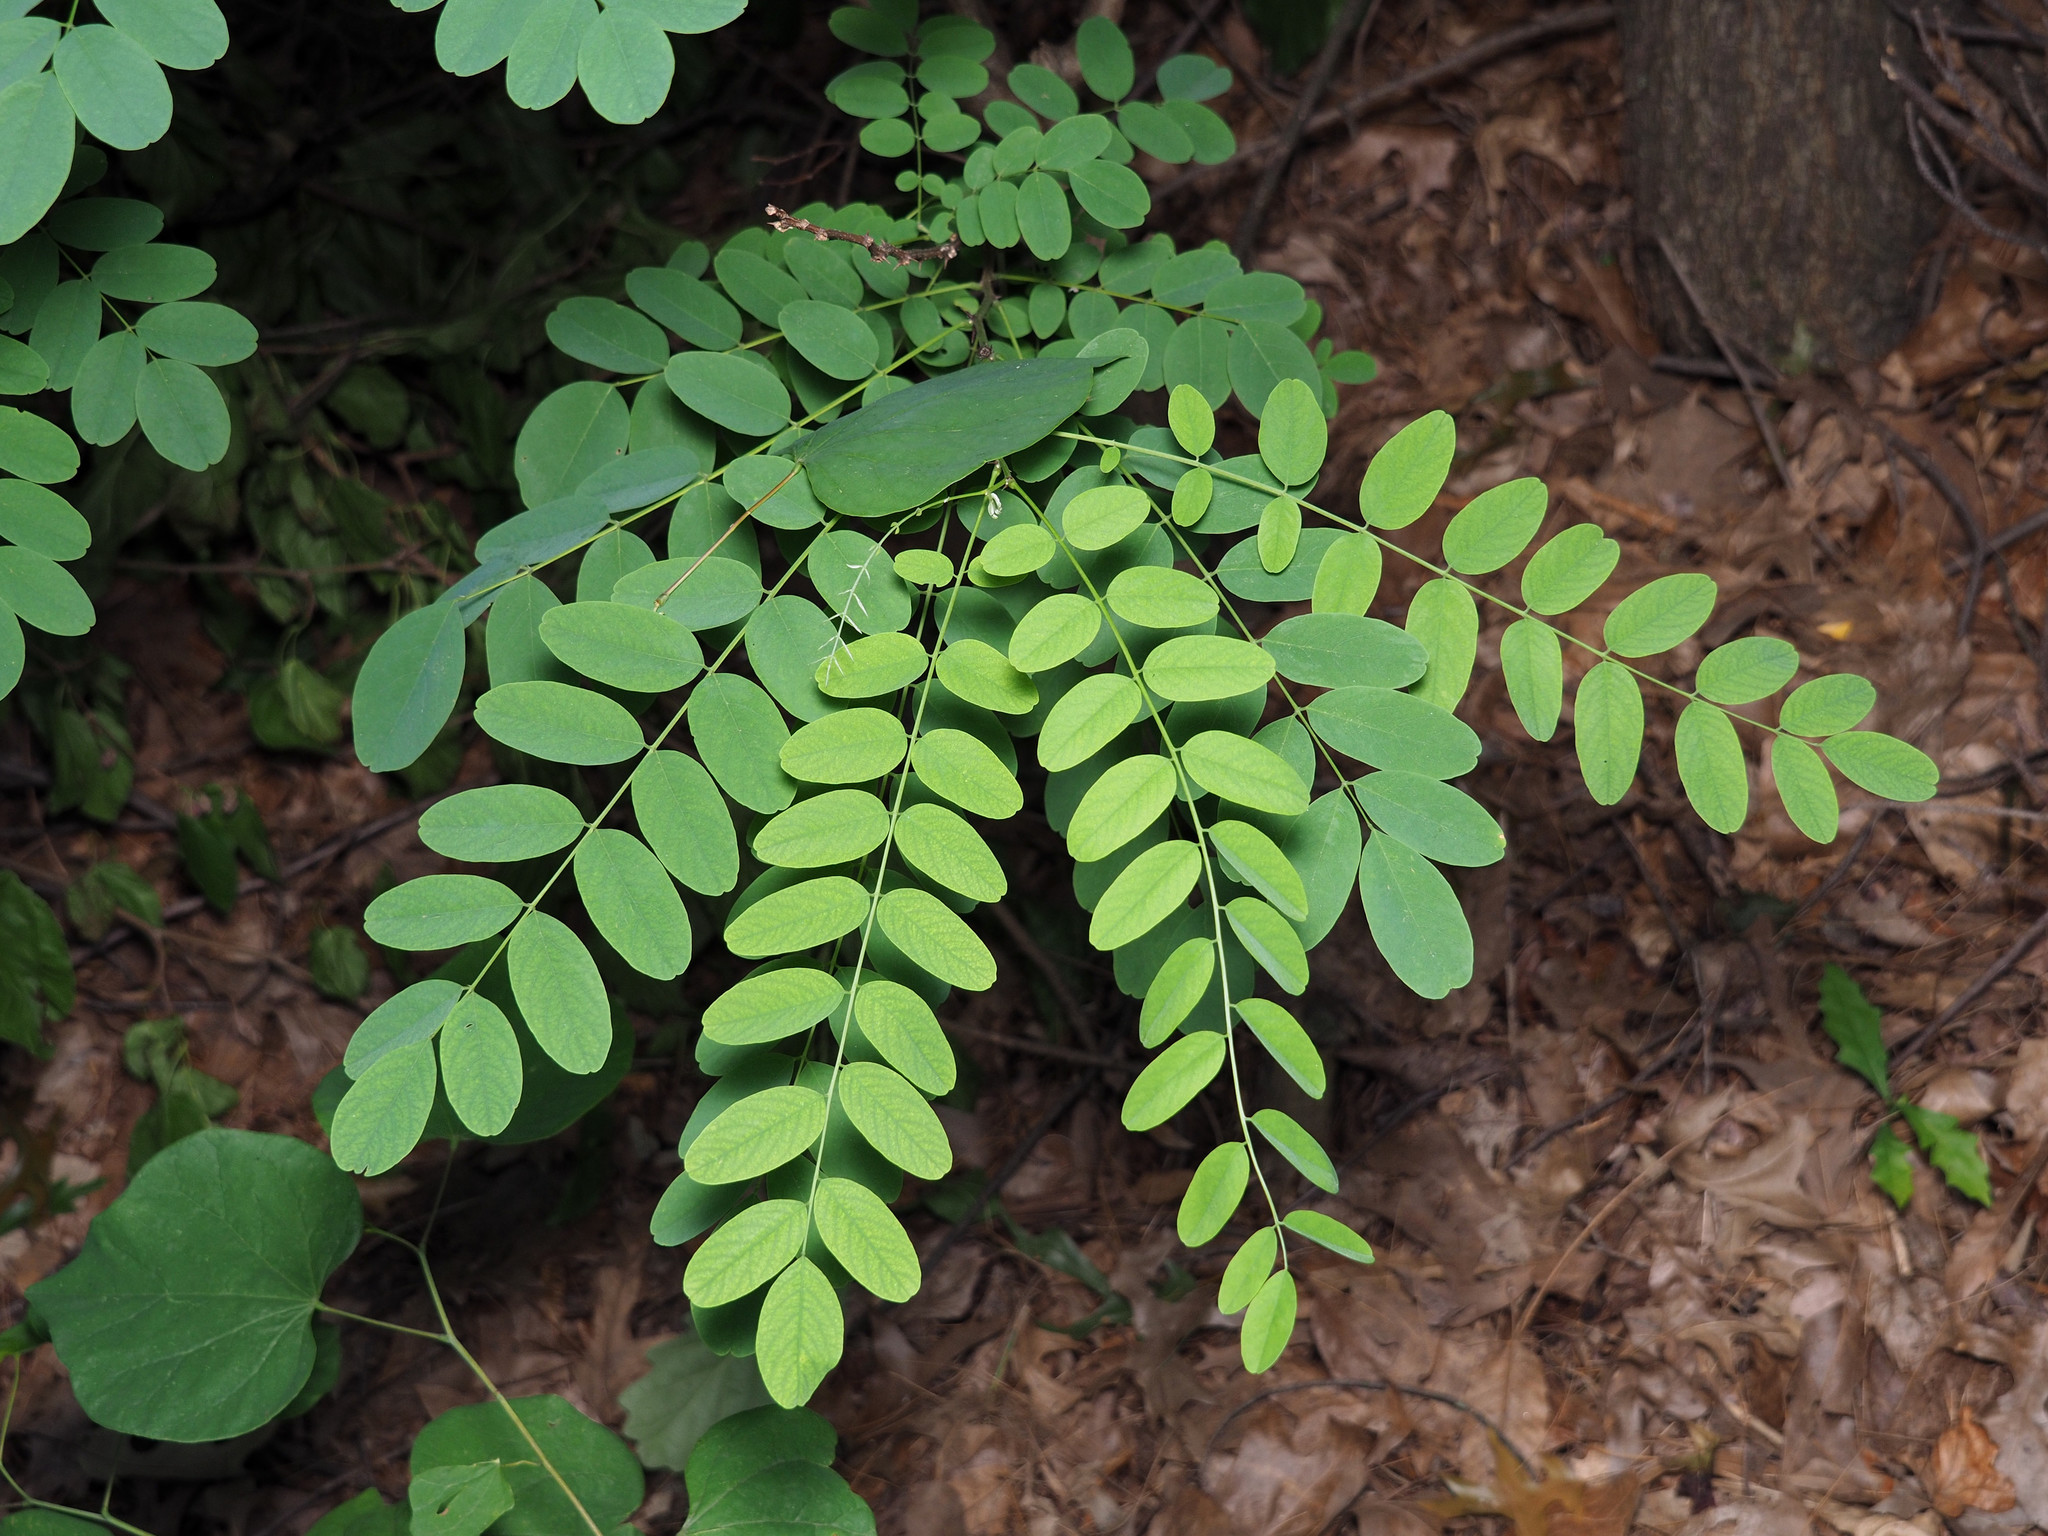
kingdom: Plantae
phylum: Tracheophyta
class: Magnoliopsida
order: Fabales
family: Fabaceae
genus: Robinia
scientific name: Robinia pseudoacacia
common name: Black locust
